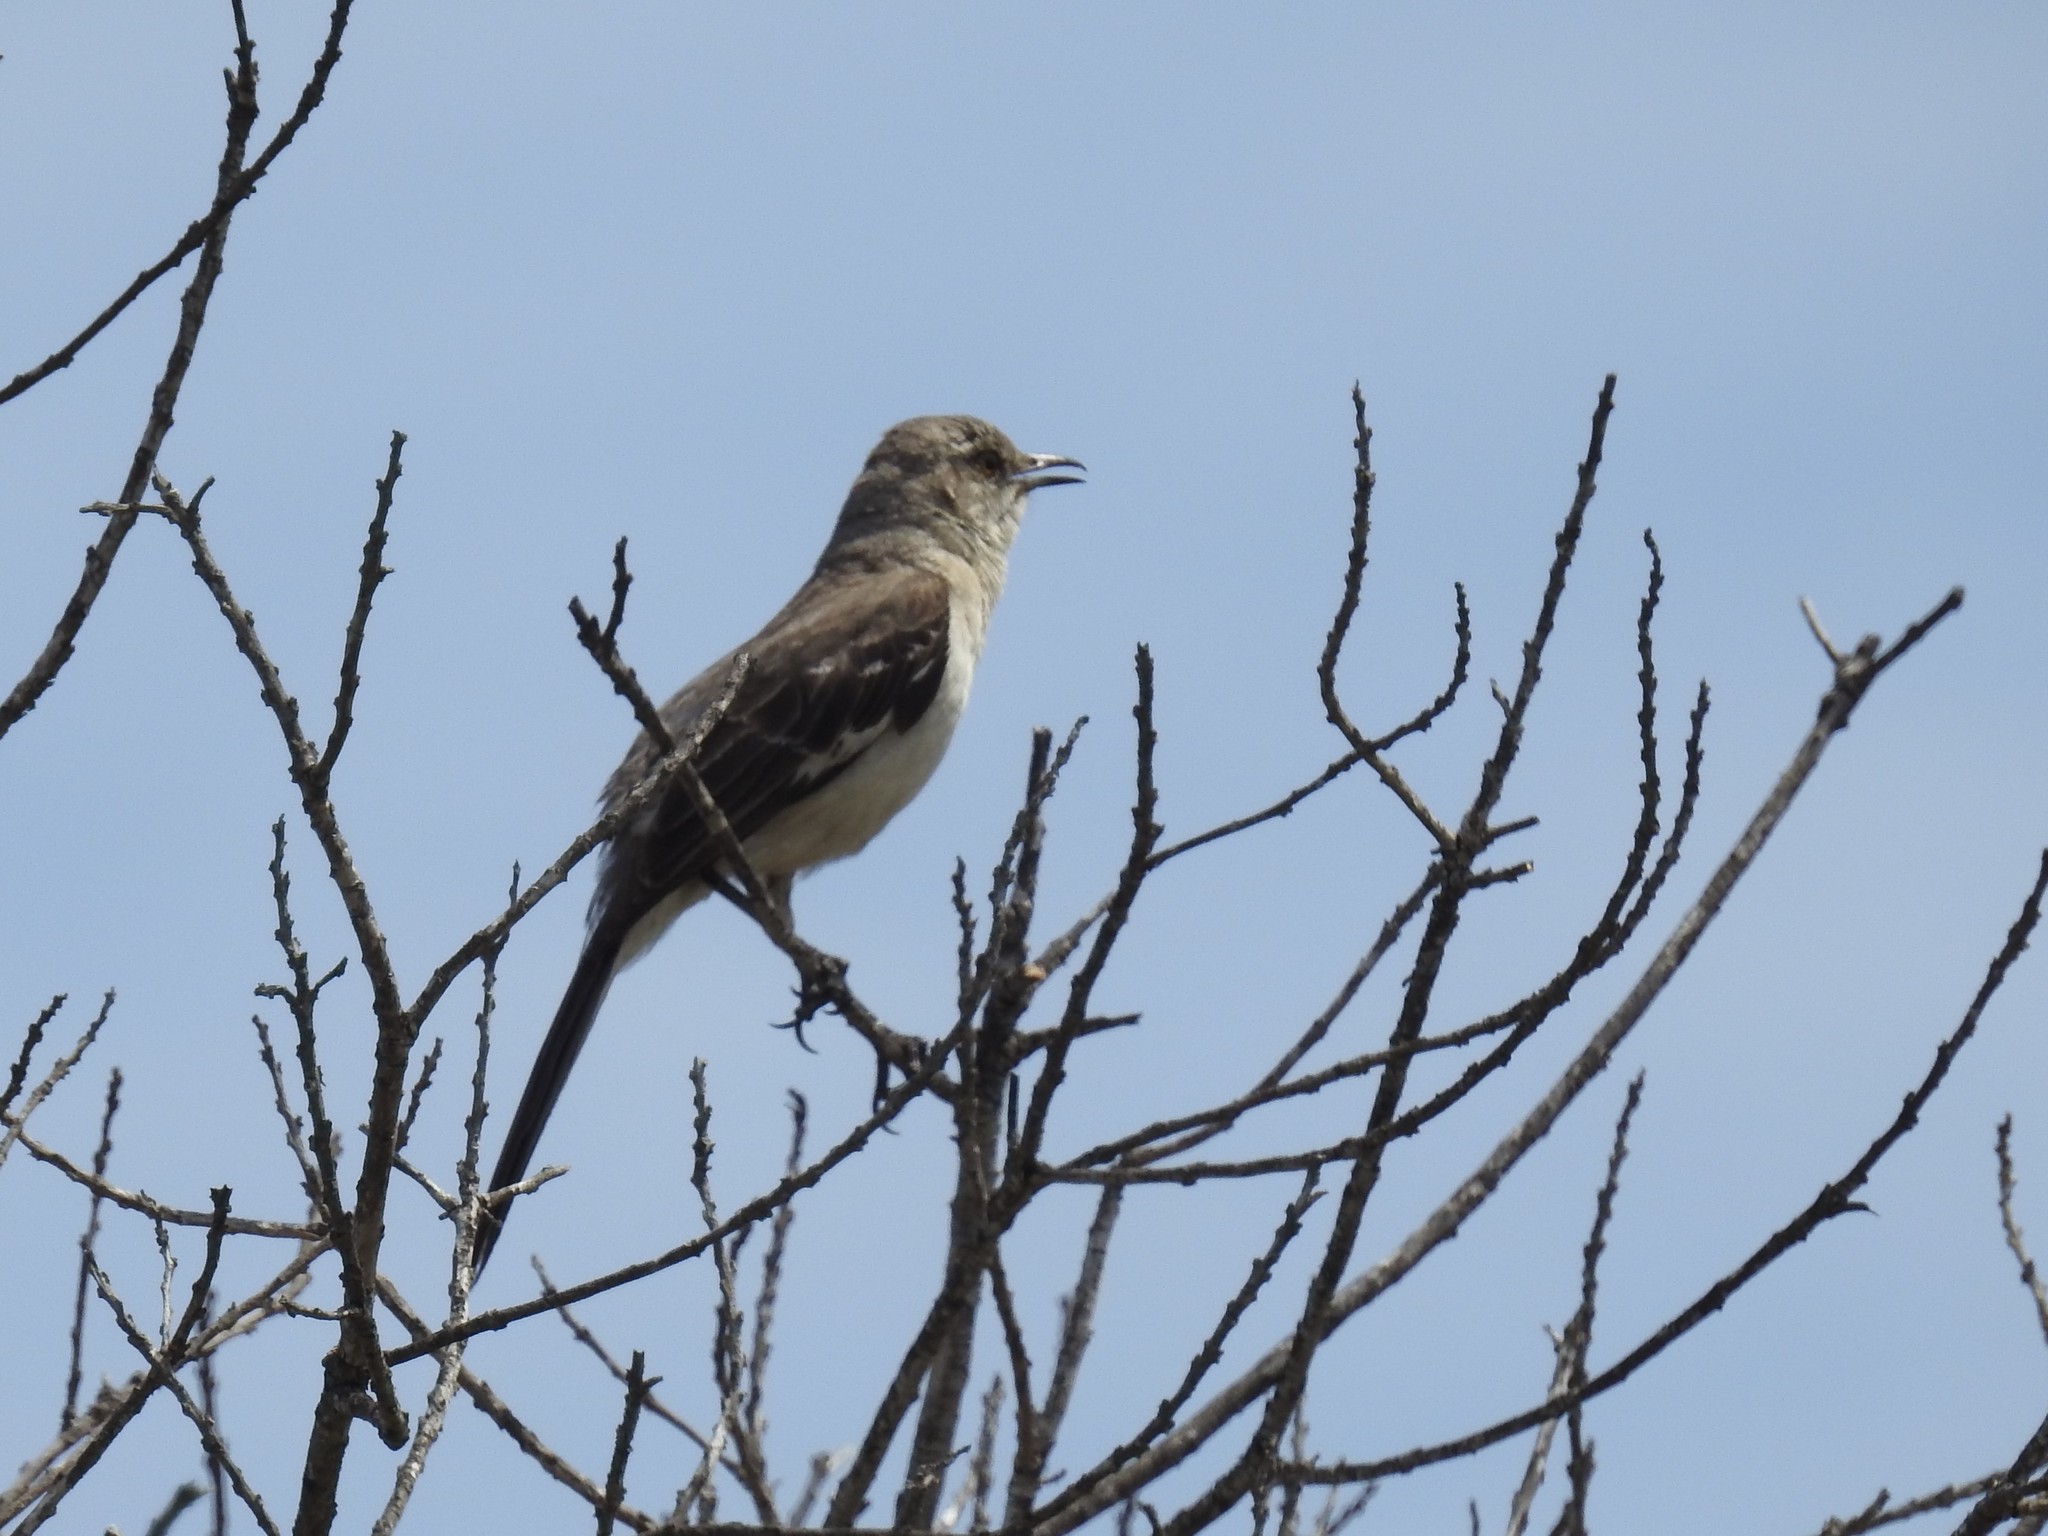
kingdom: Animalia
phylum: Chordata
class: Aves
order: Passeriformes
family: Mimidae
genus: Mimus
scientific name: Mimus polyglottos
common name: Northern mockingbird
